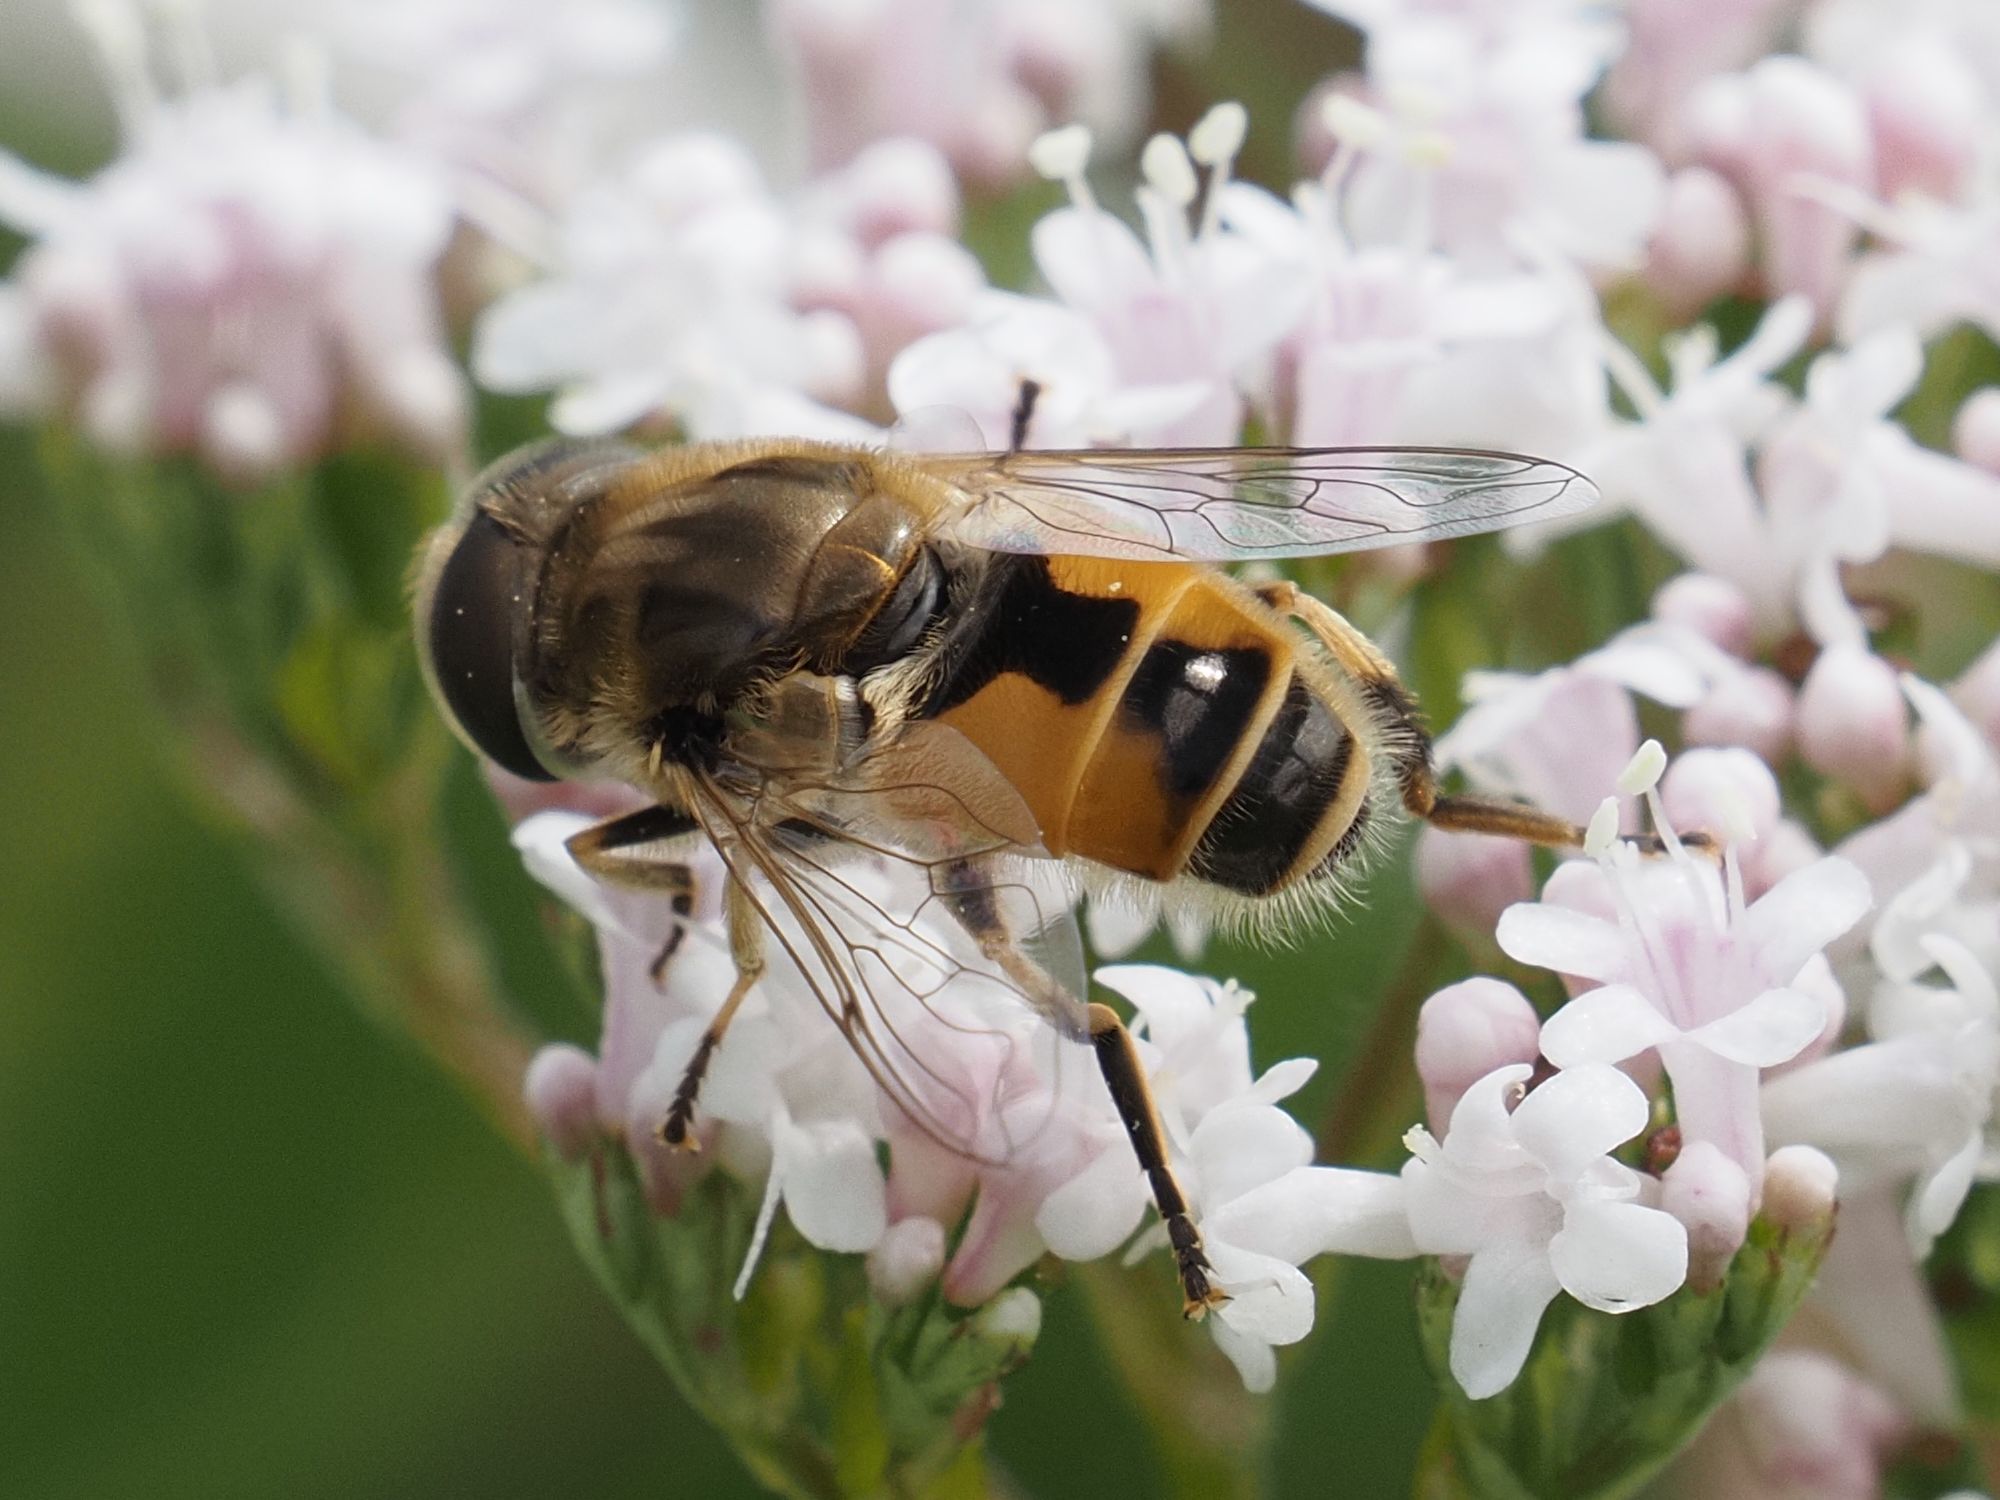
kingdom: Animalia
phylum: Arthropoda
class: Insecta
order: Diptera
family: Syrphidae
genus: Eristalis
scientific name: Eristalis arbustorum
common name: Hover fly
